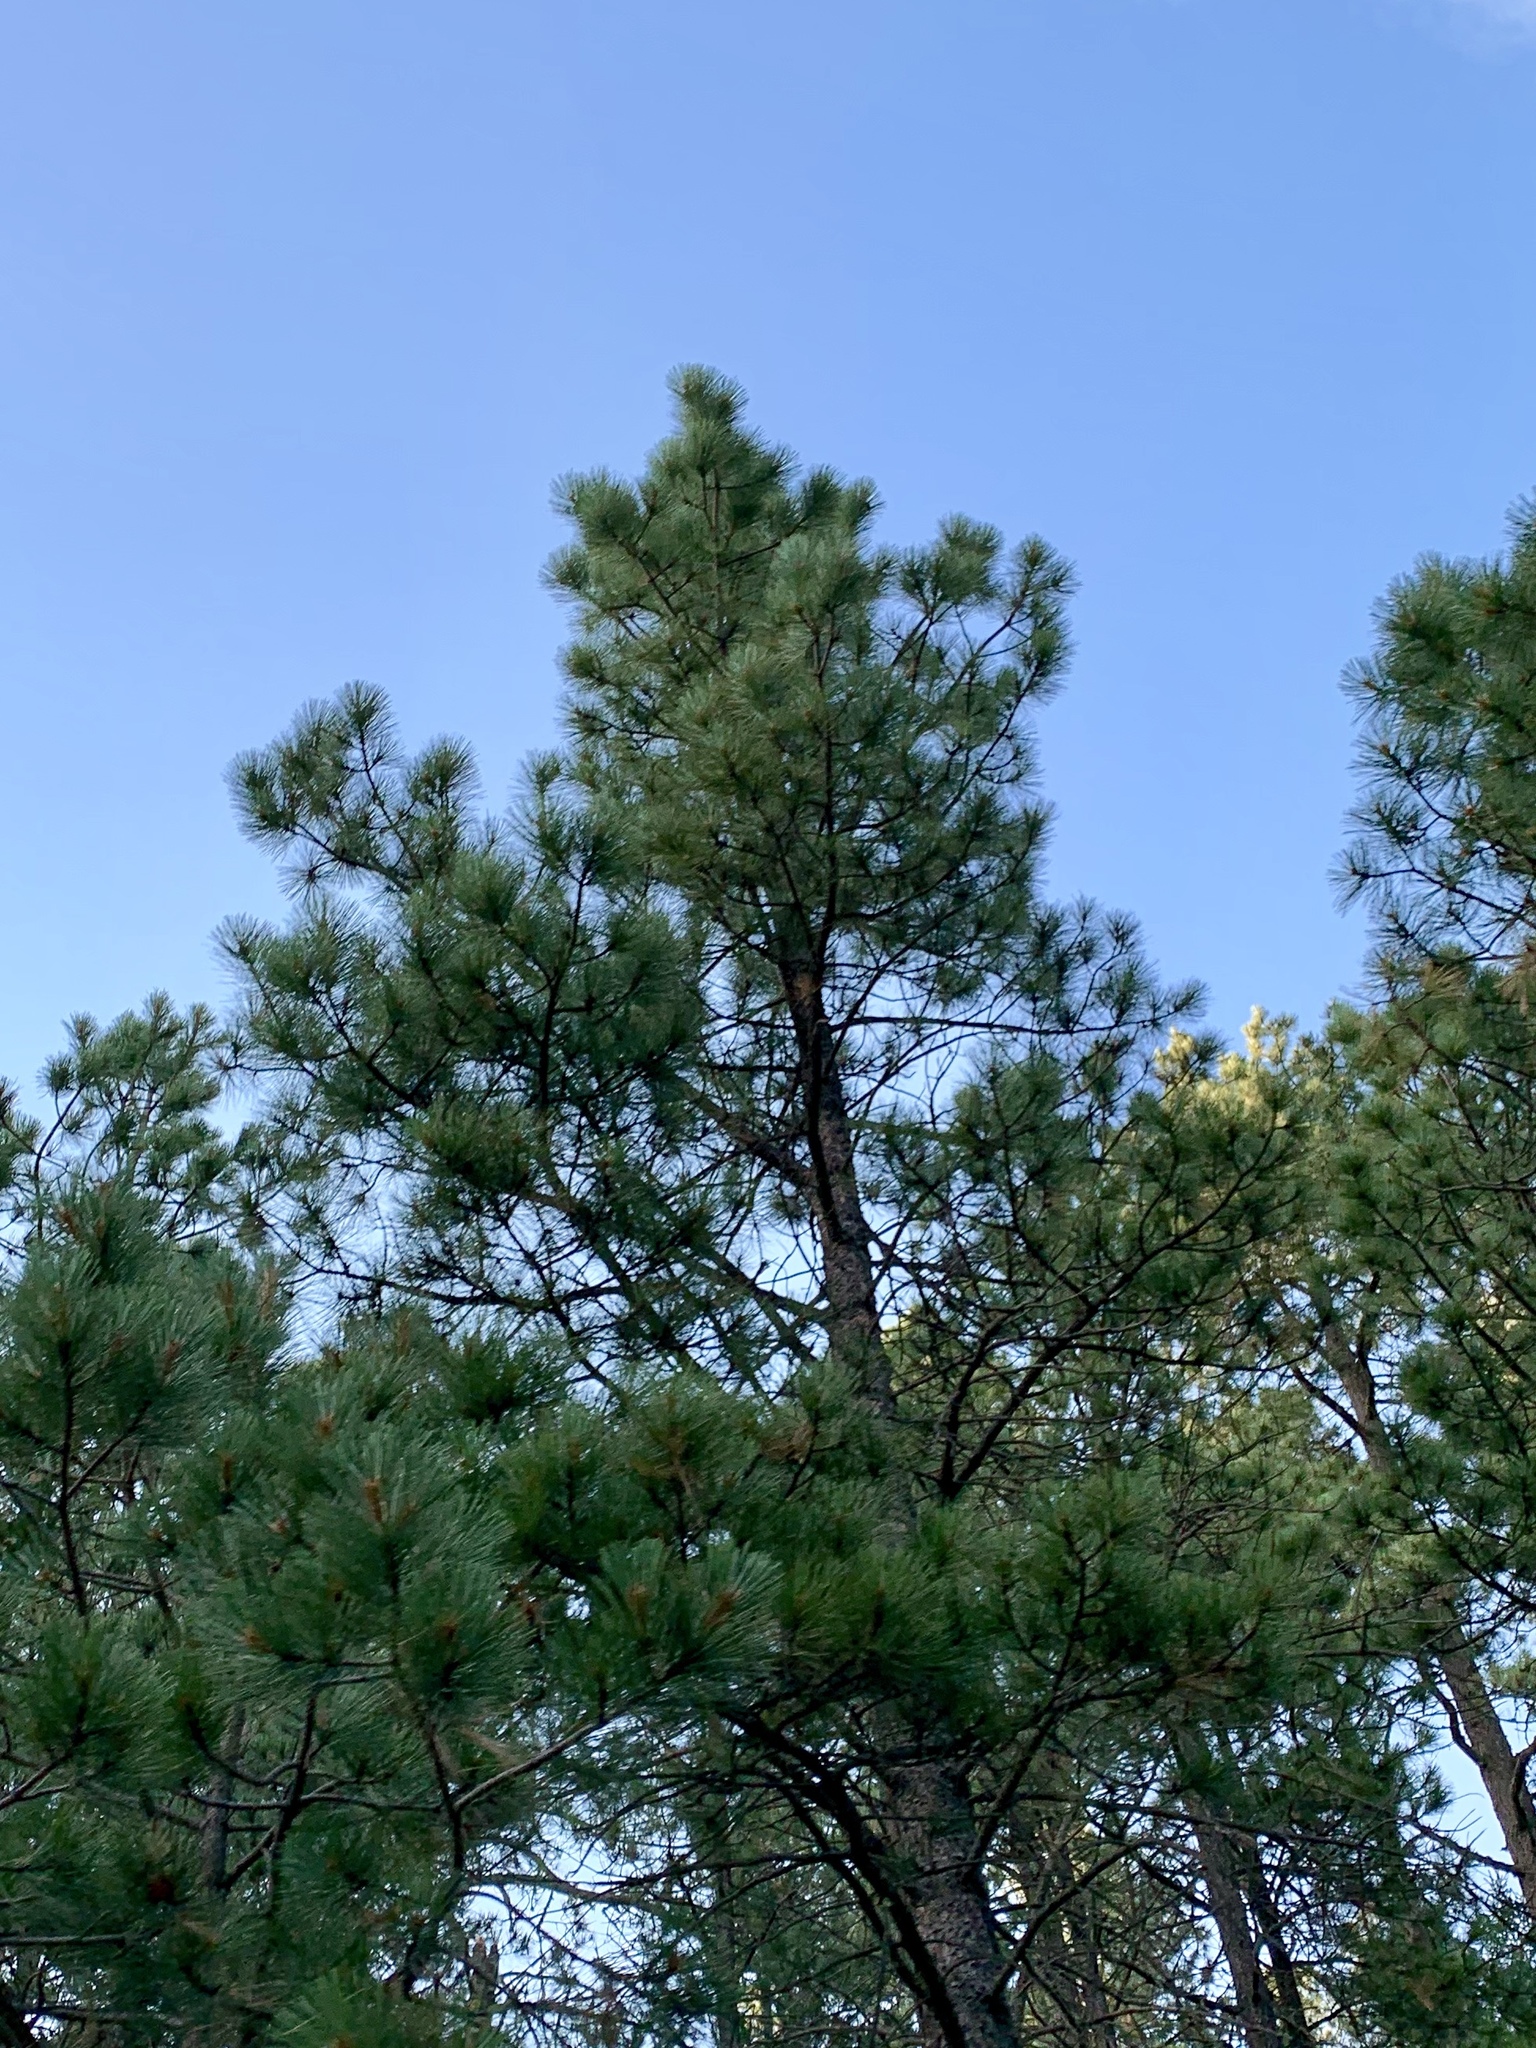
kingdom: Plantae
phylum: Tracheophyta
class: Pinopsida
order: Pinales
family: Pinaceae
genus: Pinus
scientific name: Pinus ponderosa
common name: Western yellow-pine
